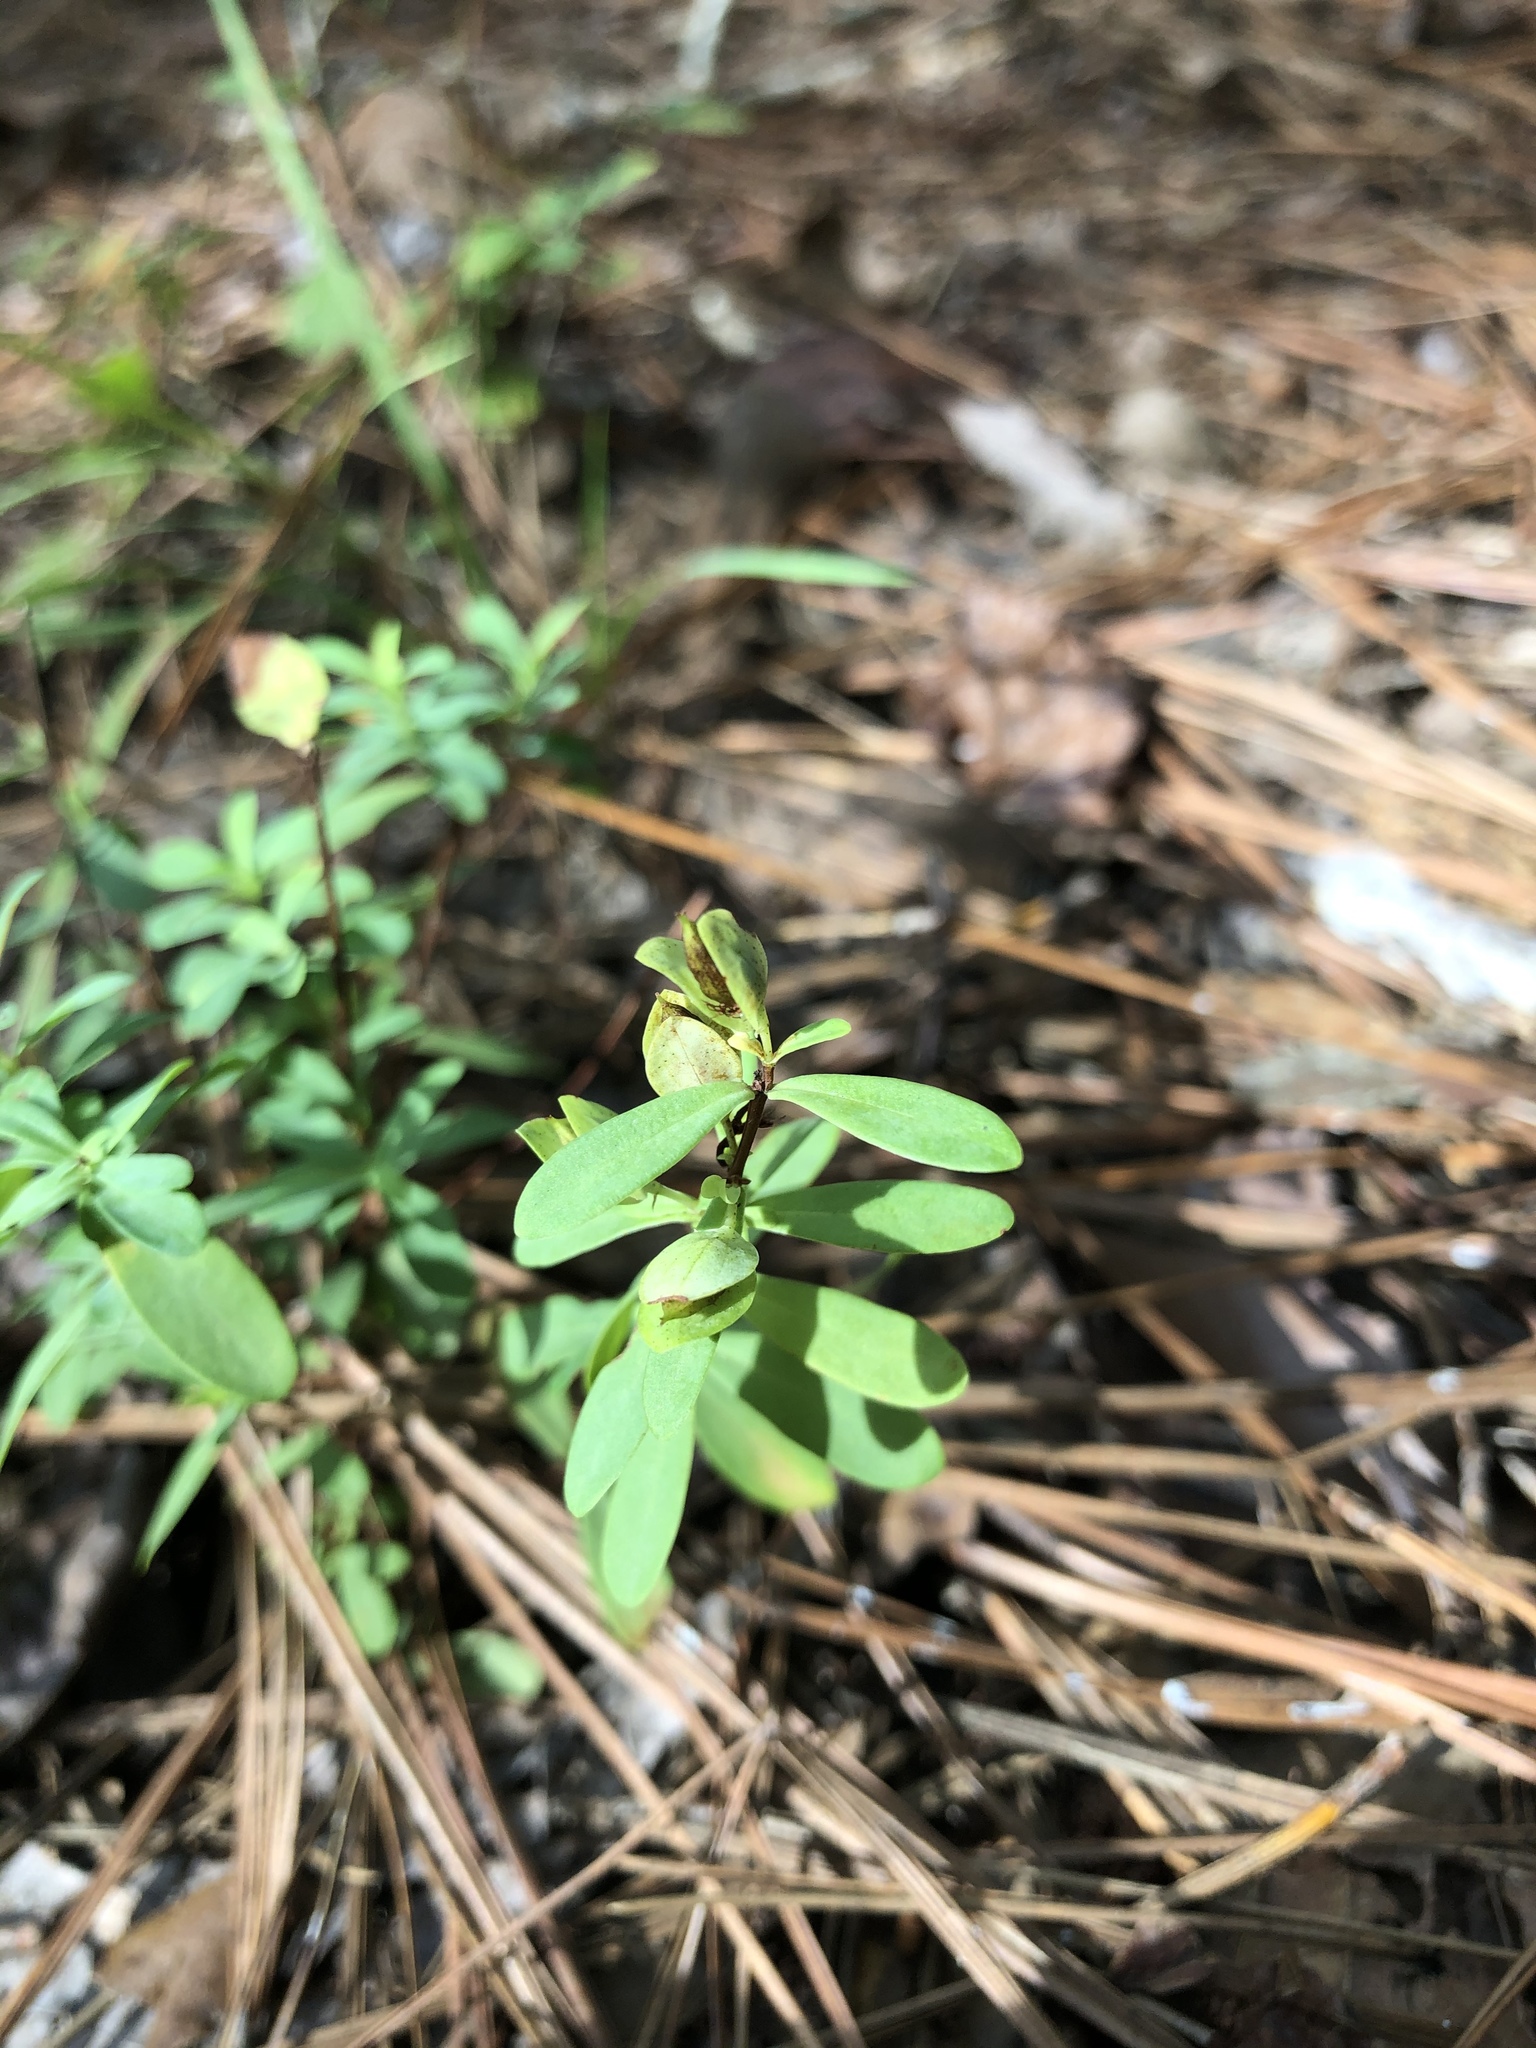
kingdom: Plantae
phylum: Tracheophyta
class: Magnoliopsida
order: Malpighiales
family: Hypericaceae
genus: Hypericum
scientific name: Hypericum hypericoides
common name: St. andrew's cross
